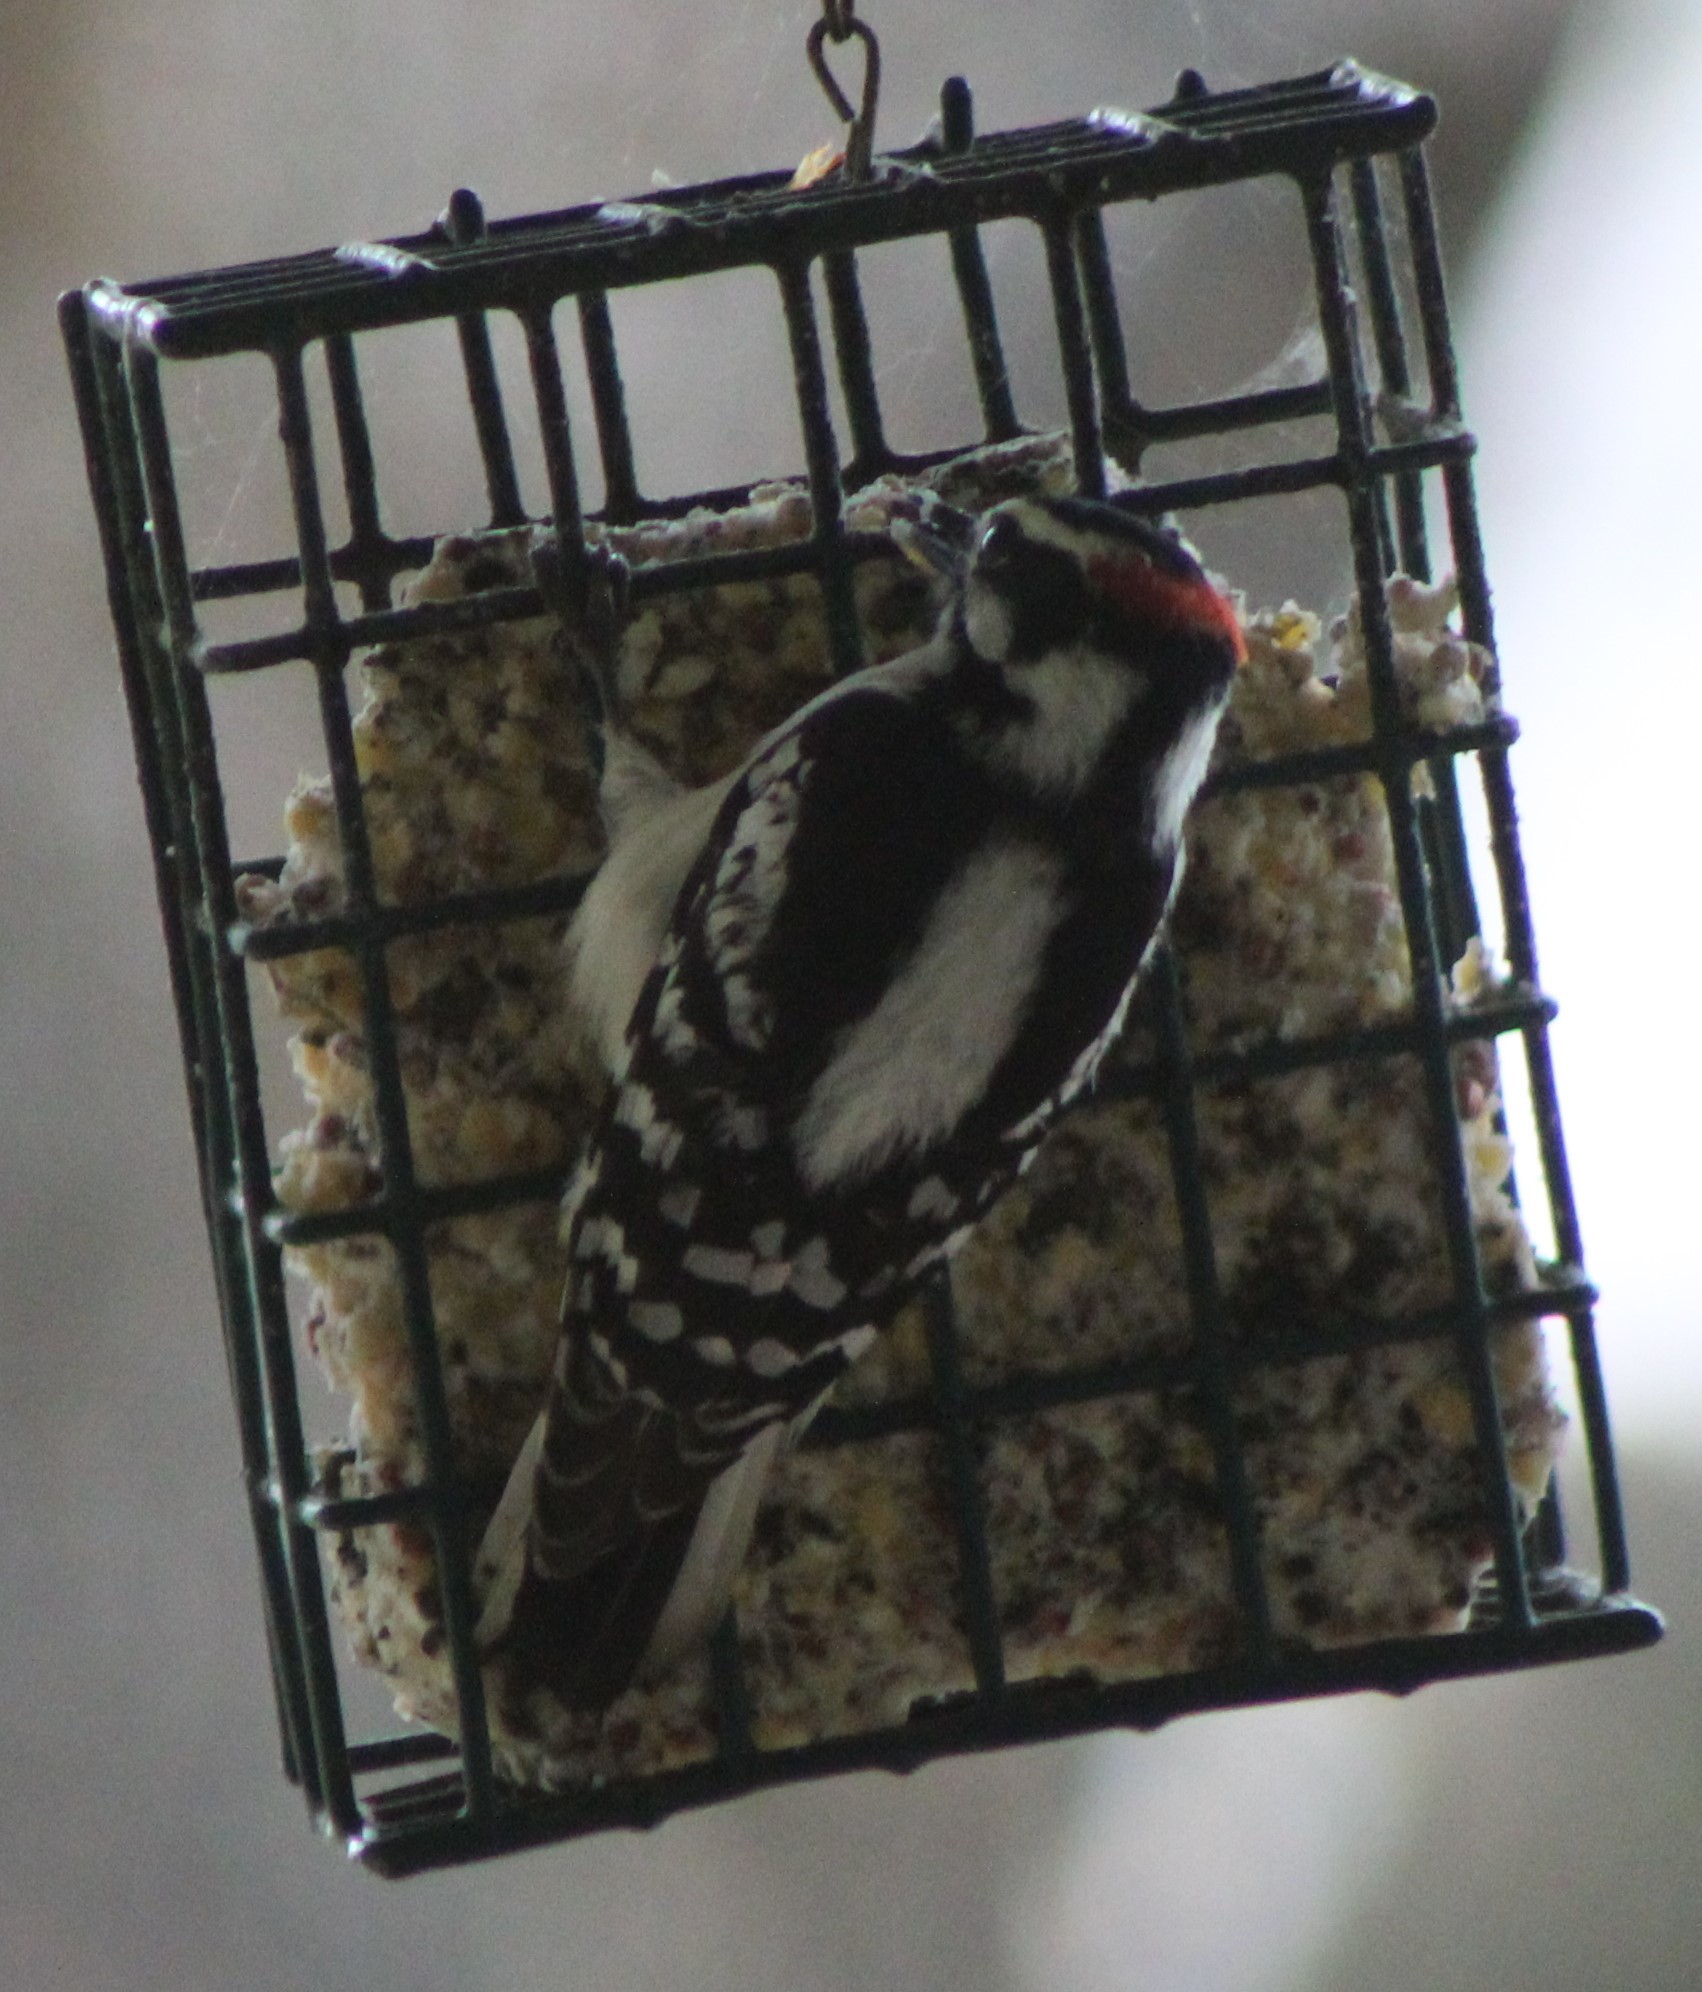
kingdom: Animalia
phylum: Chordata
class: Aves
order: Piciformes
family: Picidae
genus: Dryobates
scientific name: Dryobates pubescens
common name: Downy woodpecker
